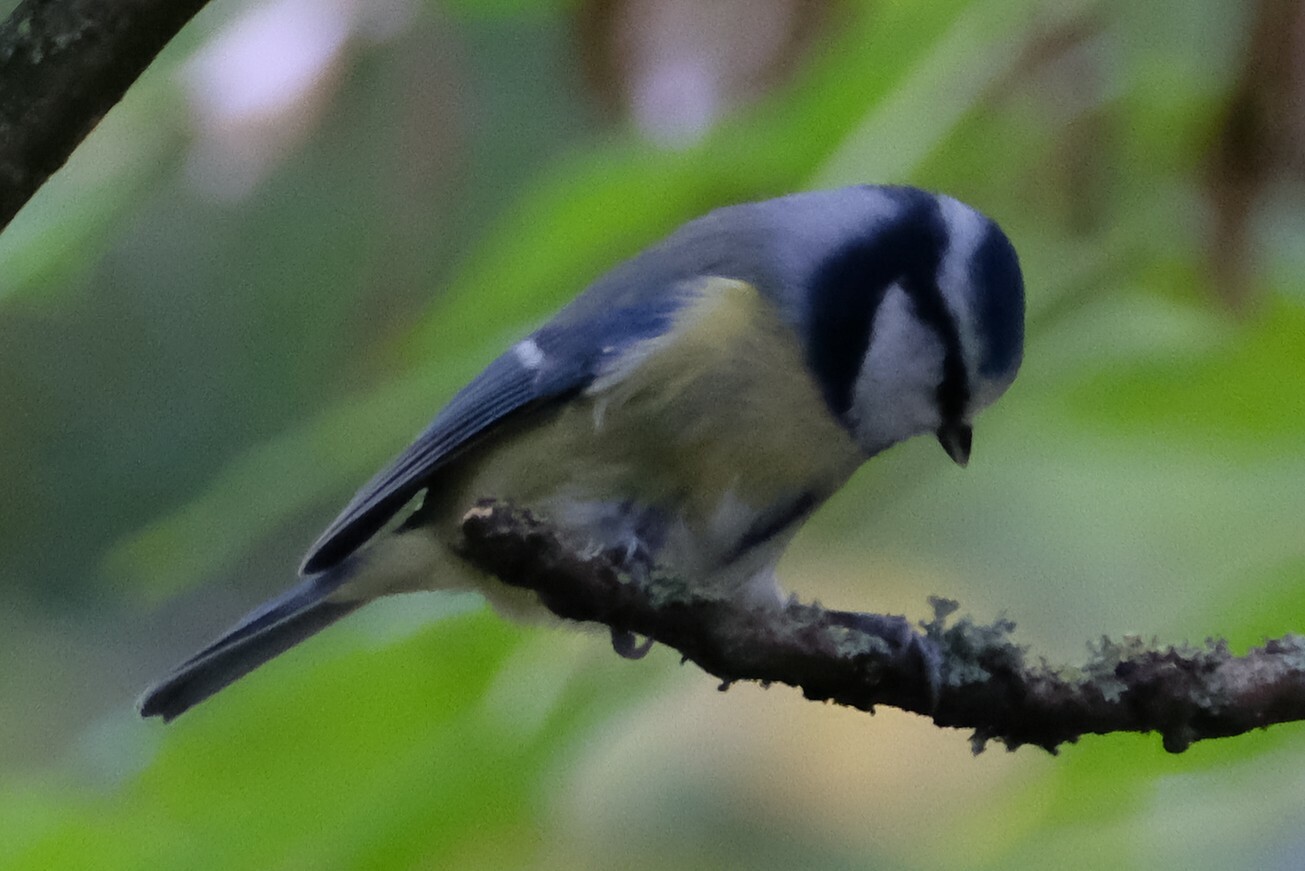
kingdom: Animalia
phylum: Chordata
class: Aves
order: Passeriformes
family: Paridae
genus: Cyanistes
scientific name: Cyanistes caeruleus
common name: Eurasian blue tit
